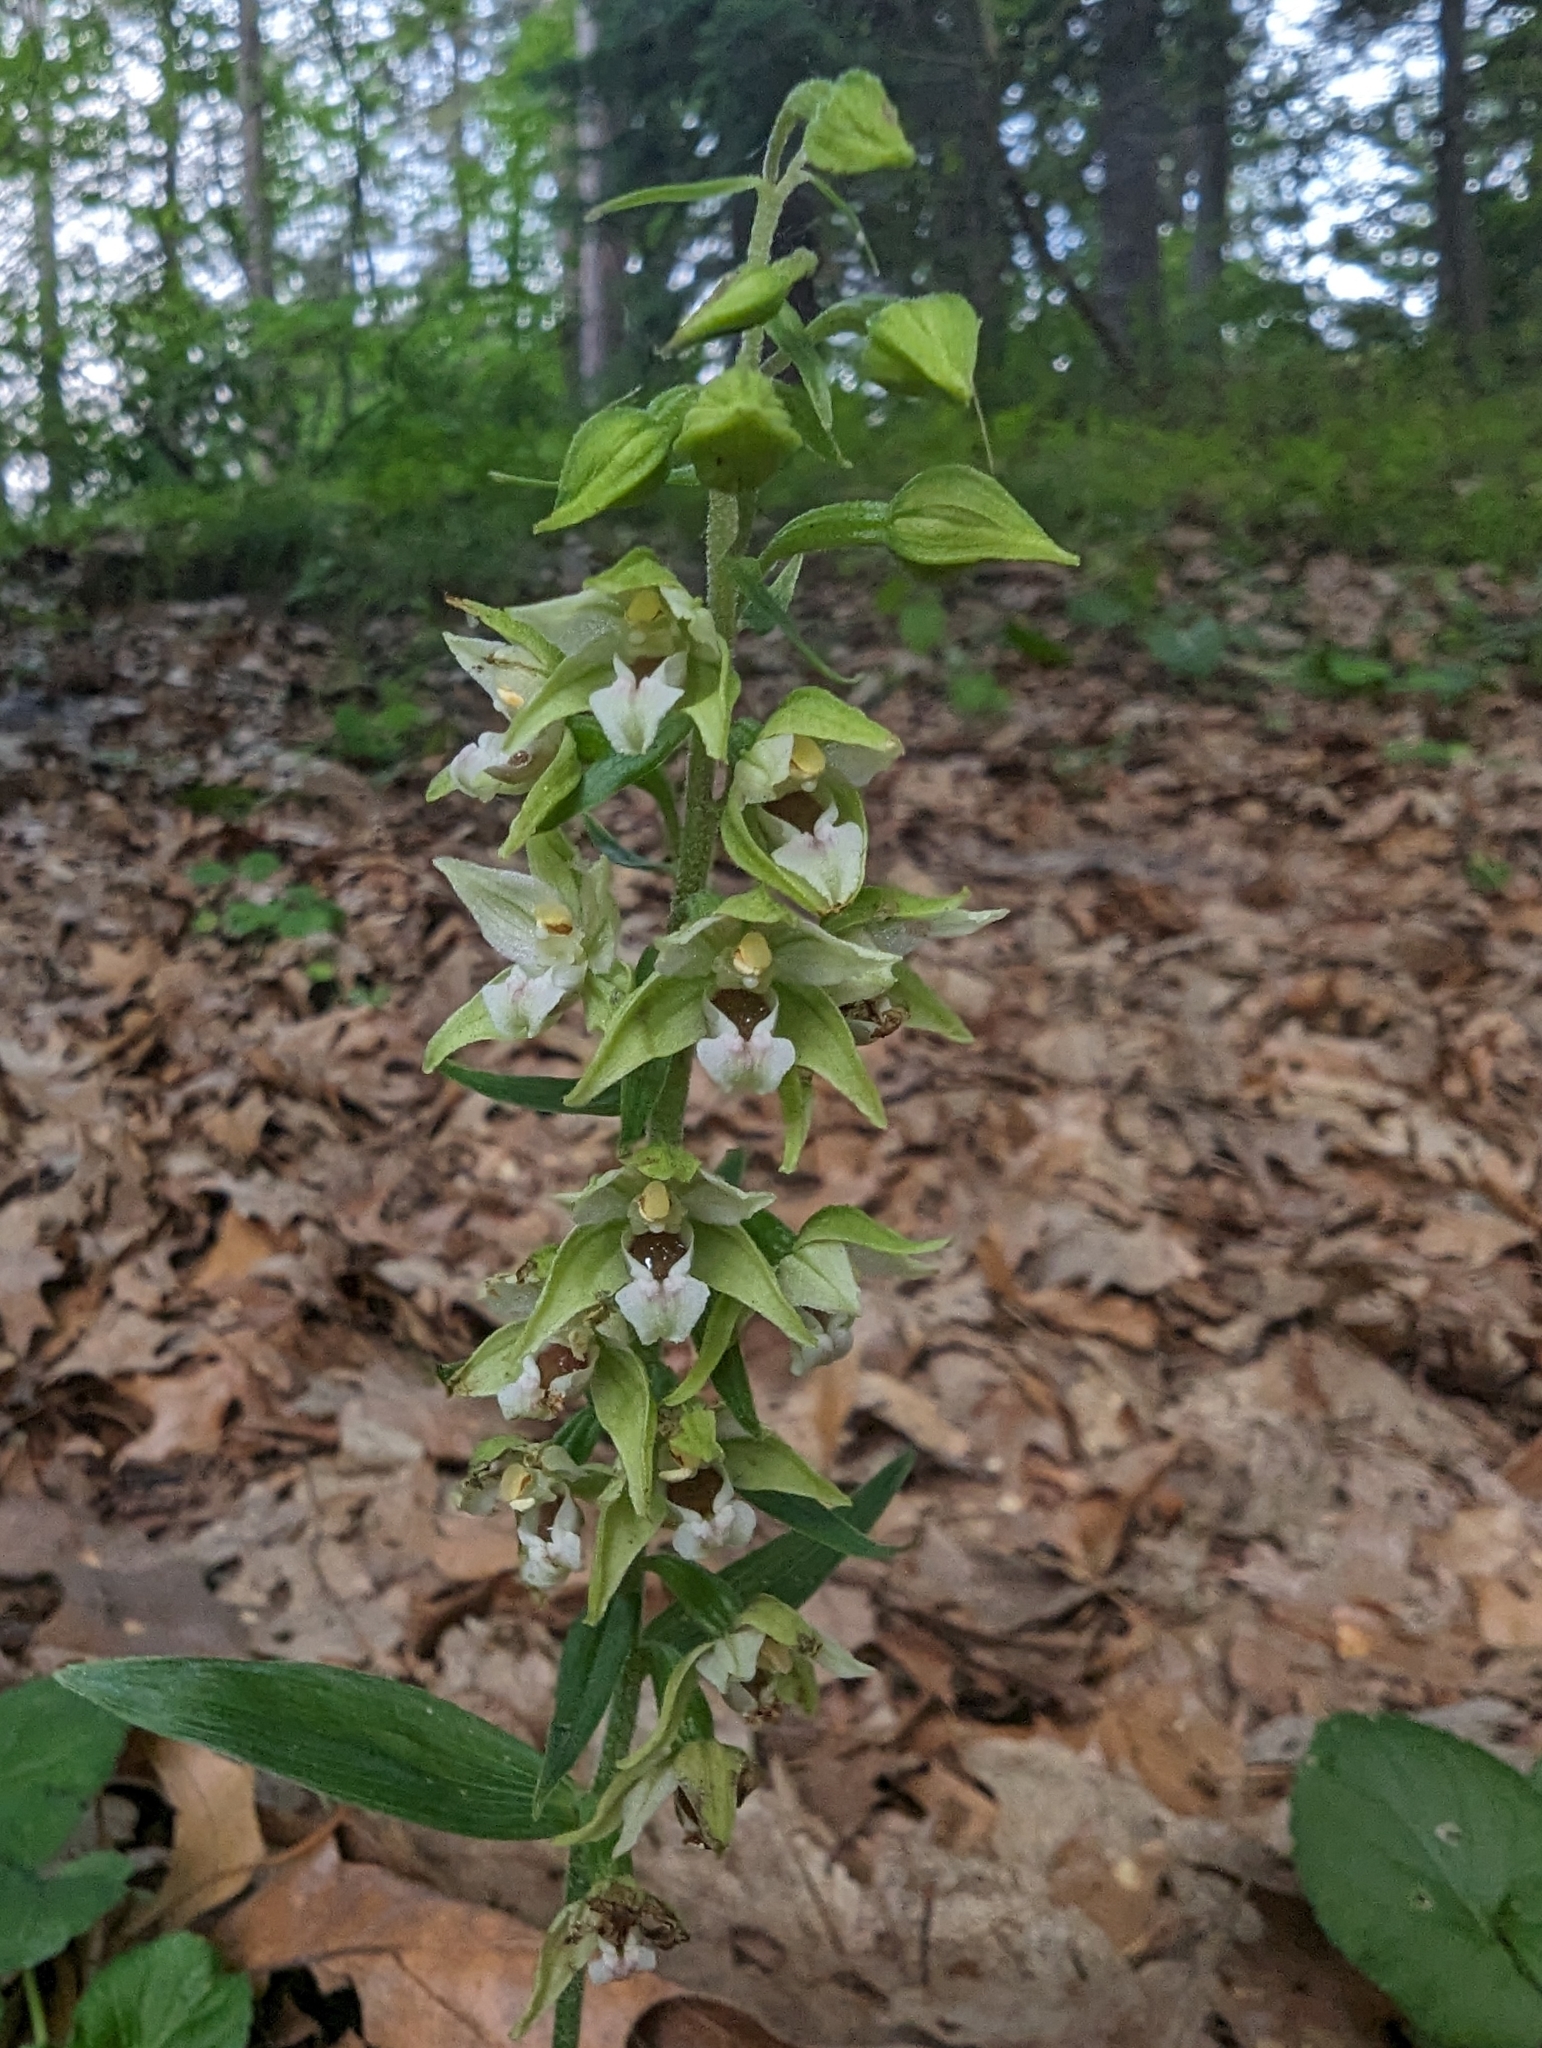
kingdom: Plantae
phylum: Tracheophyta
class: Liliopsida
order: Asparagales
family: Orchidaceae
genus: Epipactis
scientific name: Epipactis helleborine
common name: Broad-leaved helleborine
